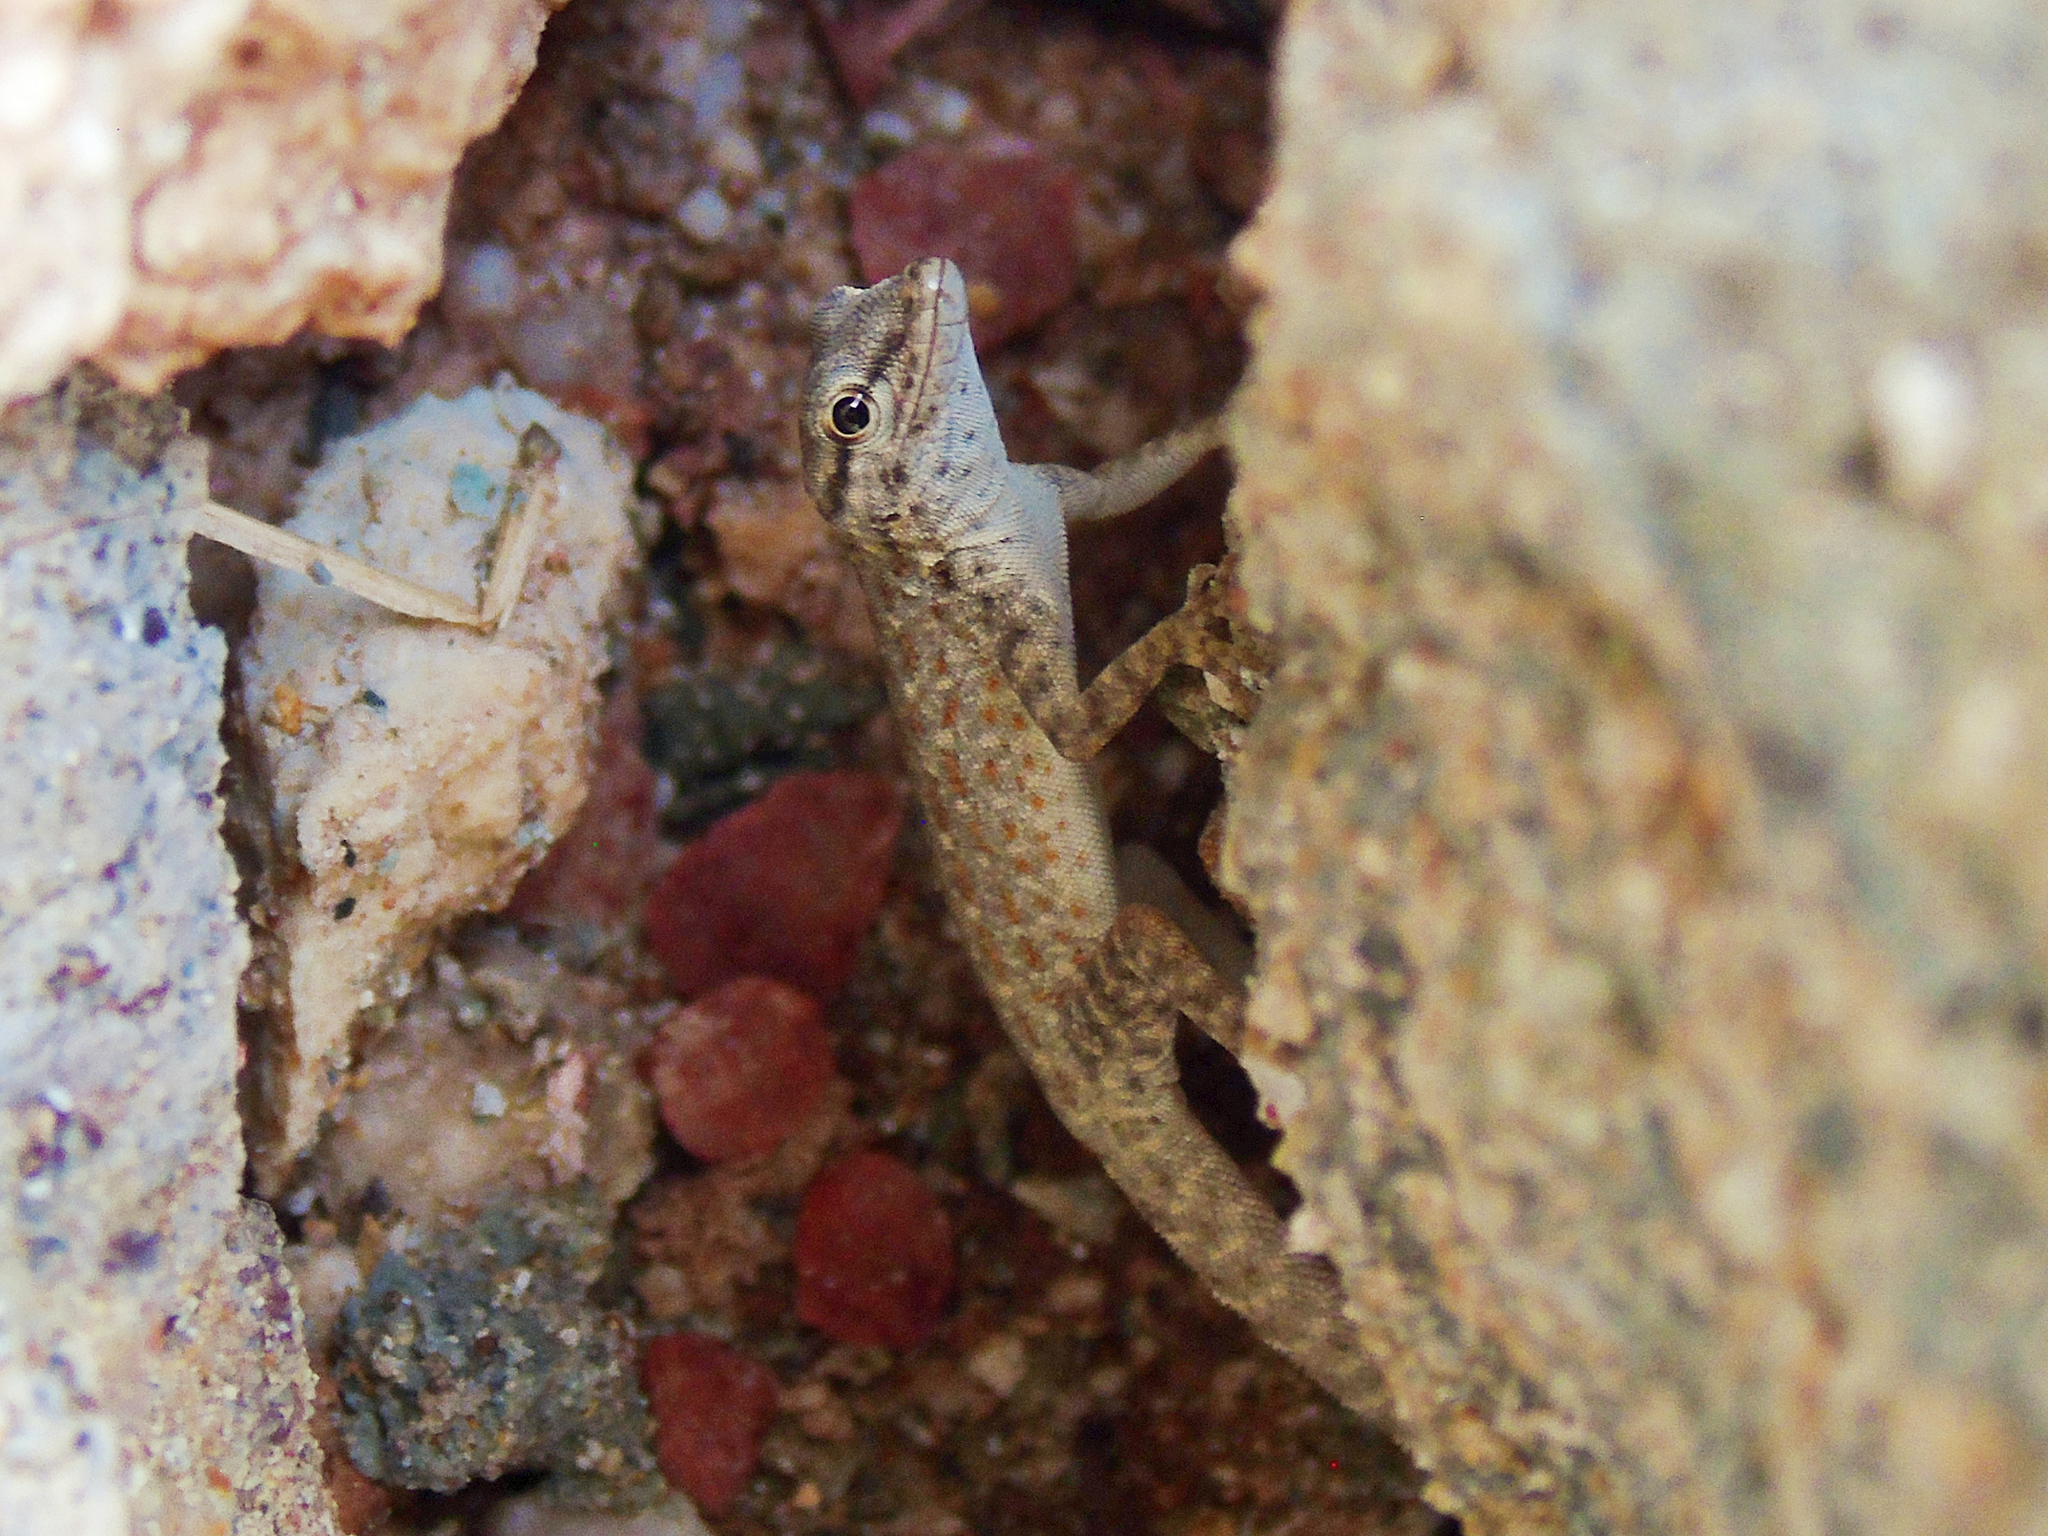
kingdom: Animalia
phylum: Chordata
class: Squamata
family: Sphaerodactylidae
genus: Pristurus
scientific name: Pristurus rupestris
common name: Blanford’s semaphore gecko
